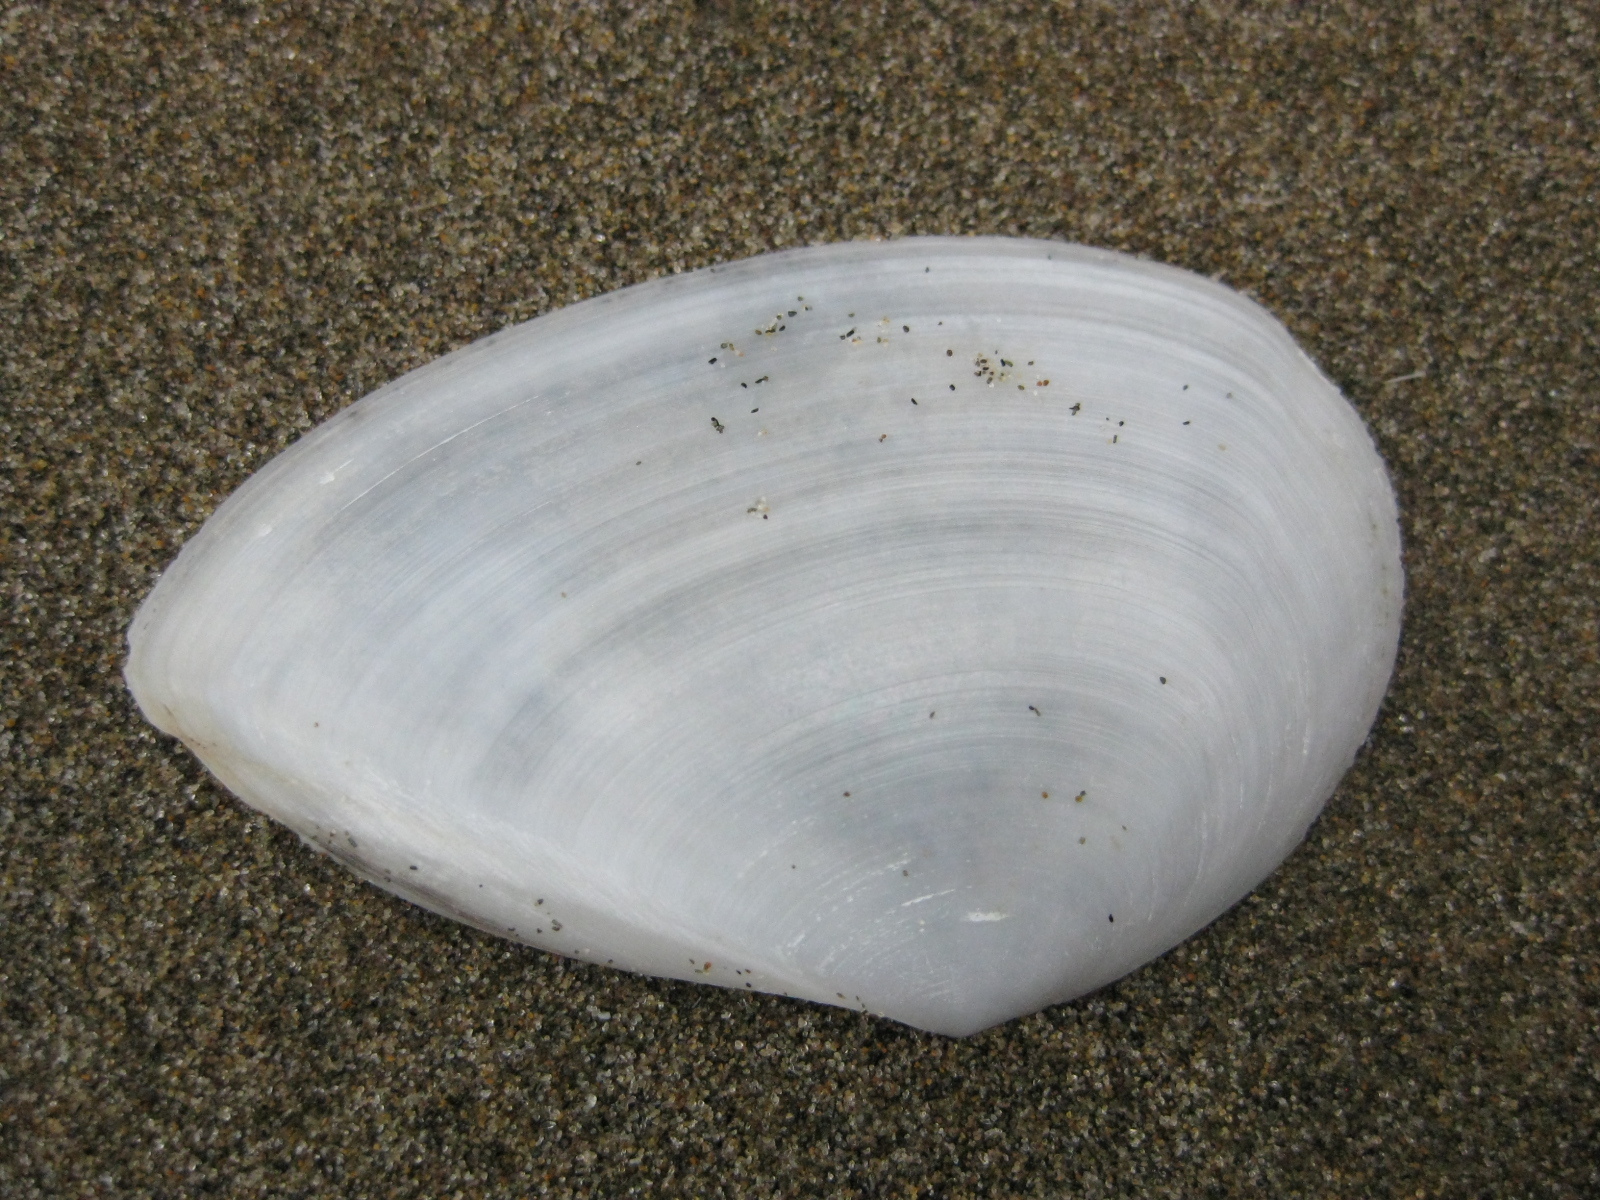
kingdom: Animalia
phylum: Mollusca
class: Bivalvia
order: Cardiida
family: Tellinidae
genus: Bartschicoma
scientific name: Bartschicoma gaimardi
